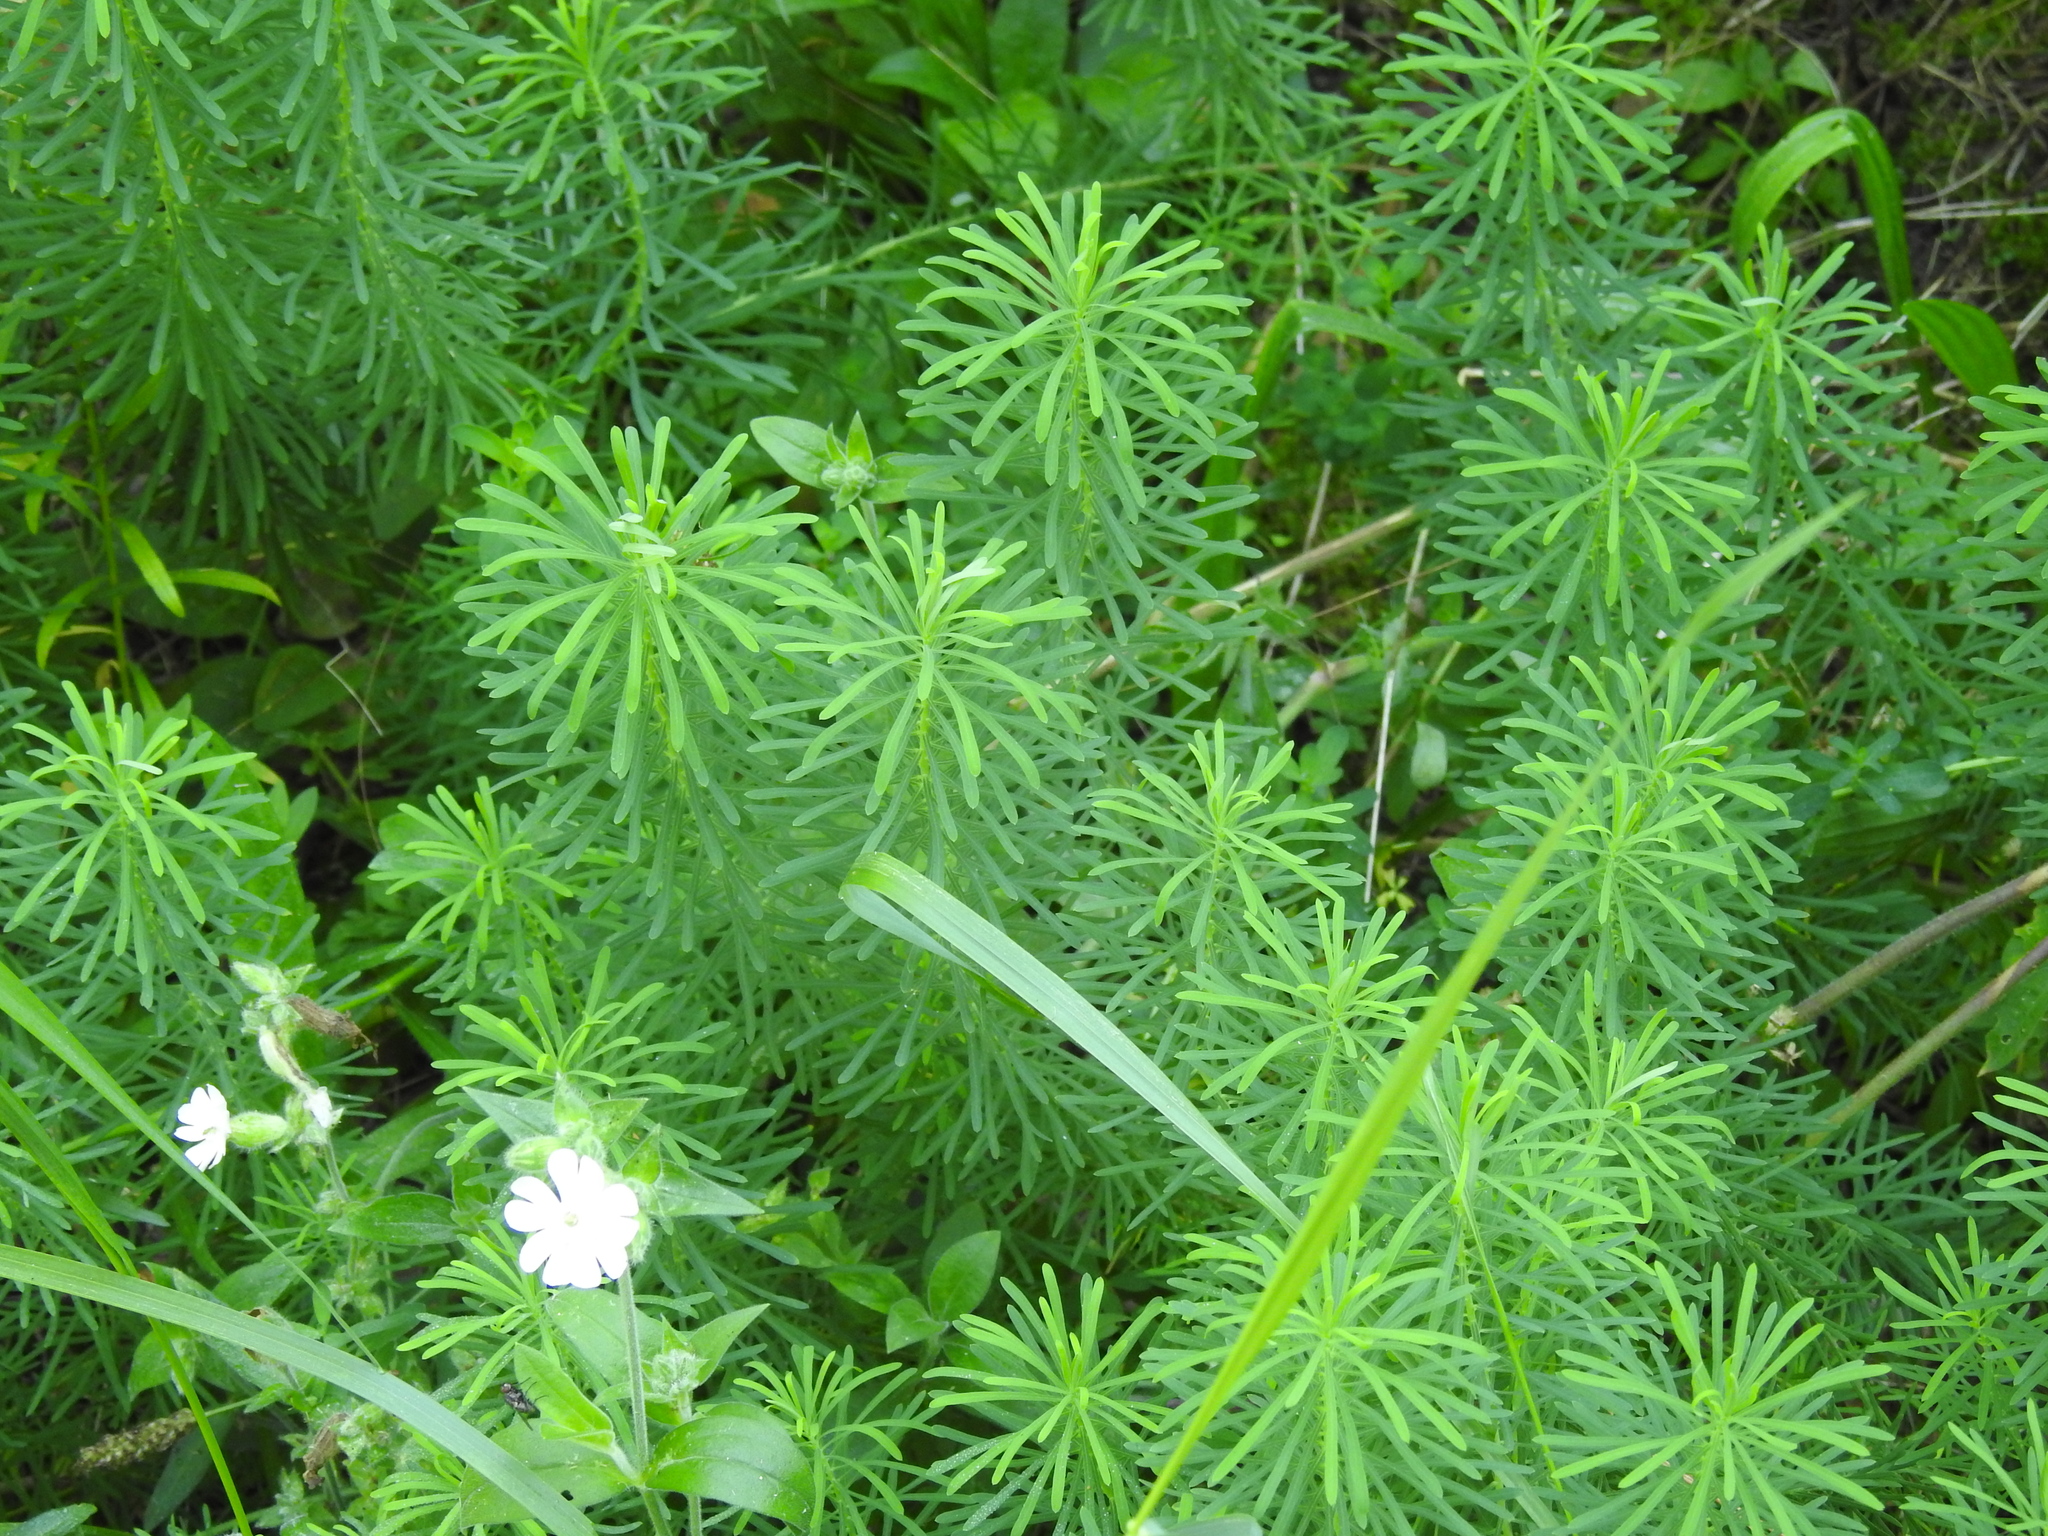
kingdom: Plantae
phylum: Tracheophyta
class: Magnoliopsida
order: Malpighiales
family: Euphorbiaceae
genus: Euphorbia
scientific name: Euphorbia cyparissias
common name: Cypress spurge
